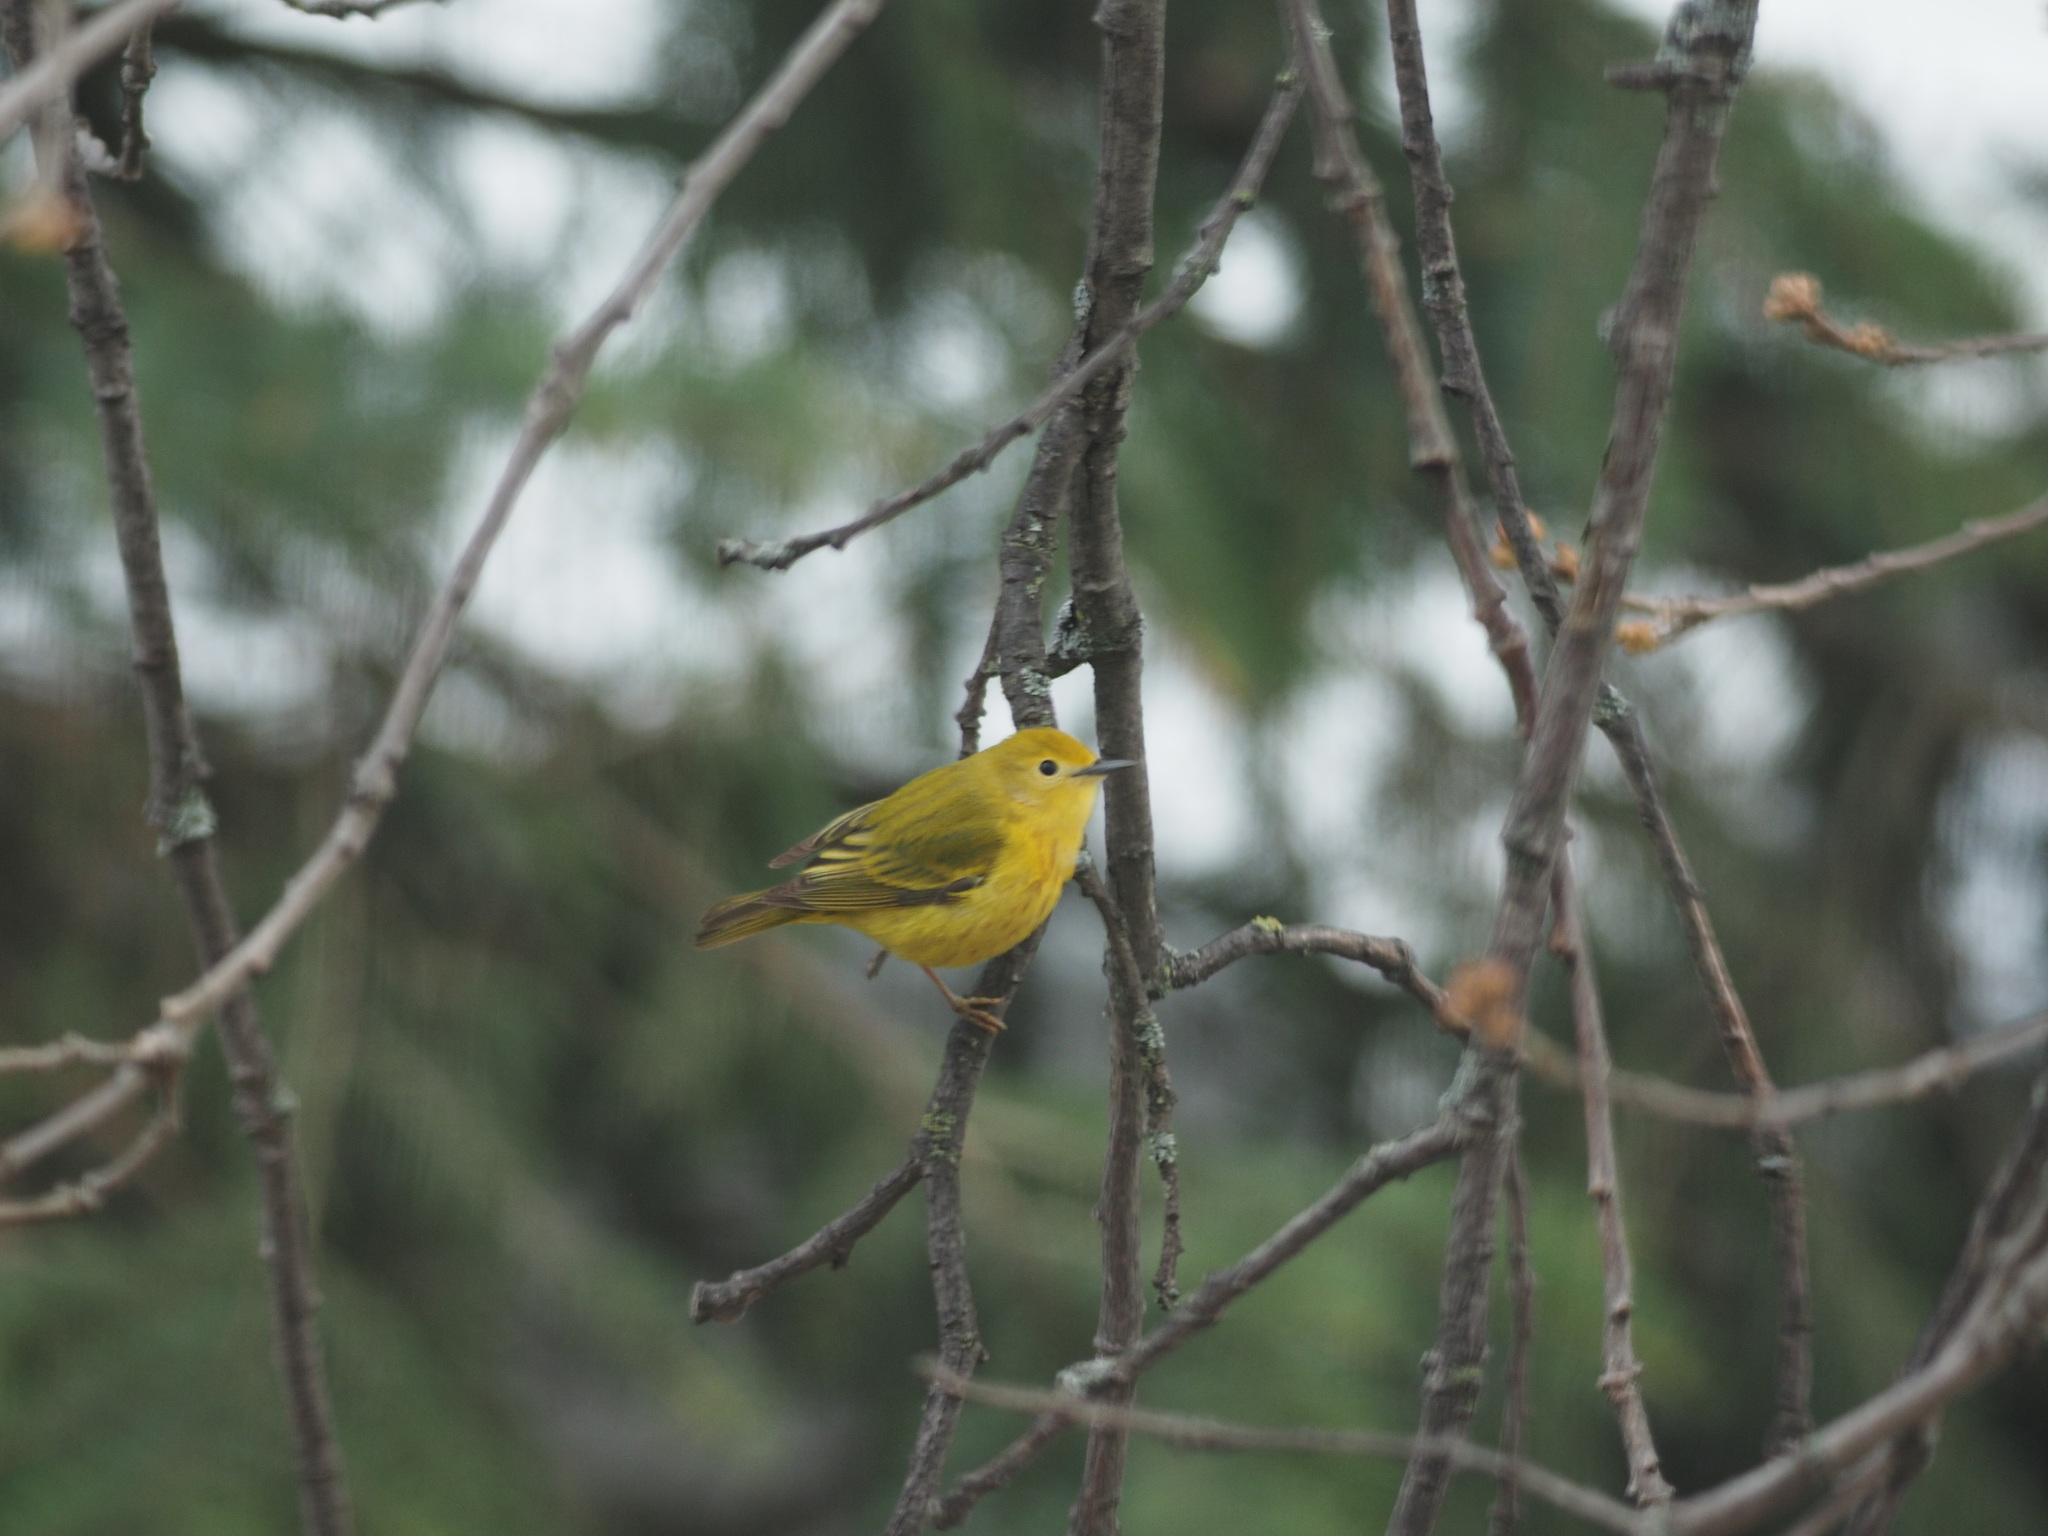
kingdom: Animalia
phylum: Chordata
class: Aves
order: Passeriformes
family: Parulidae
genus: Setophaga
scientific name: Setophaga petechia
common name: Yellow warbler
